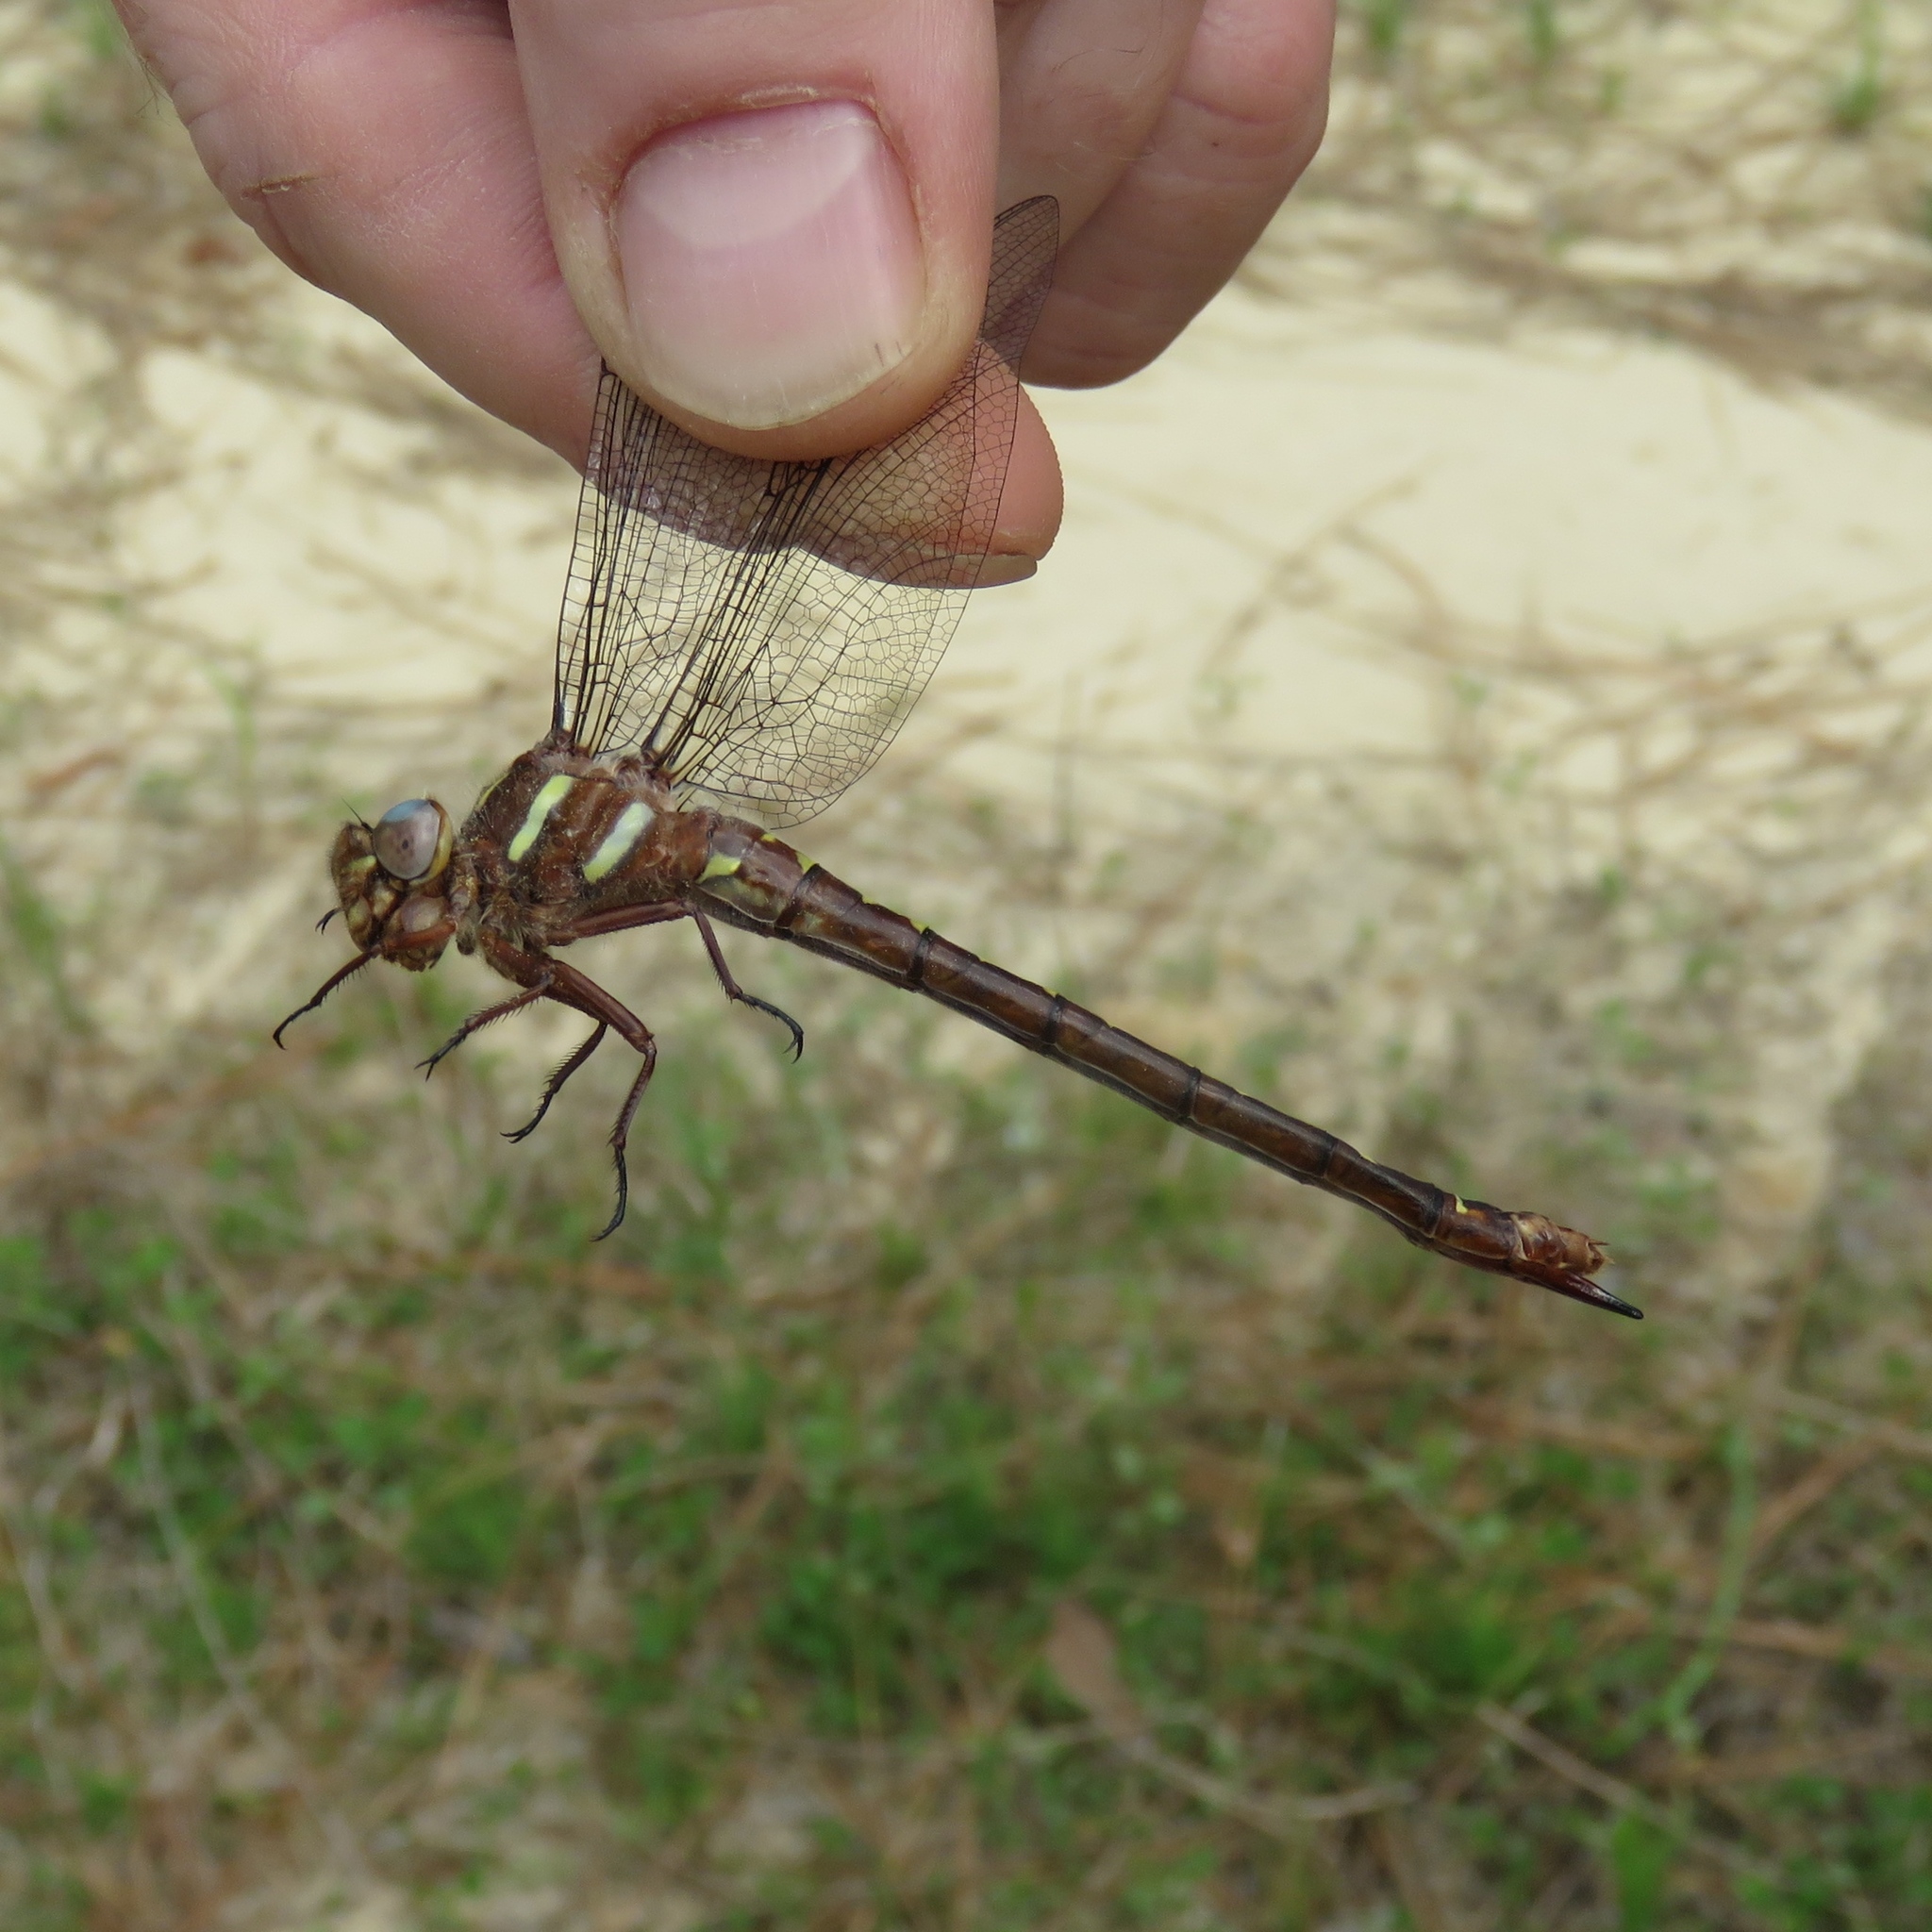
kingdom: Animalia
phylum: Arthropoda
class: Insecta
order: Odonata
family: Cordulegastridae
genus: Cordulegaster
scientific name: Cordulegaster maculata
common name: Twin-spotted spiketail
